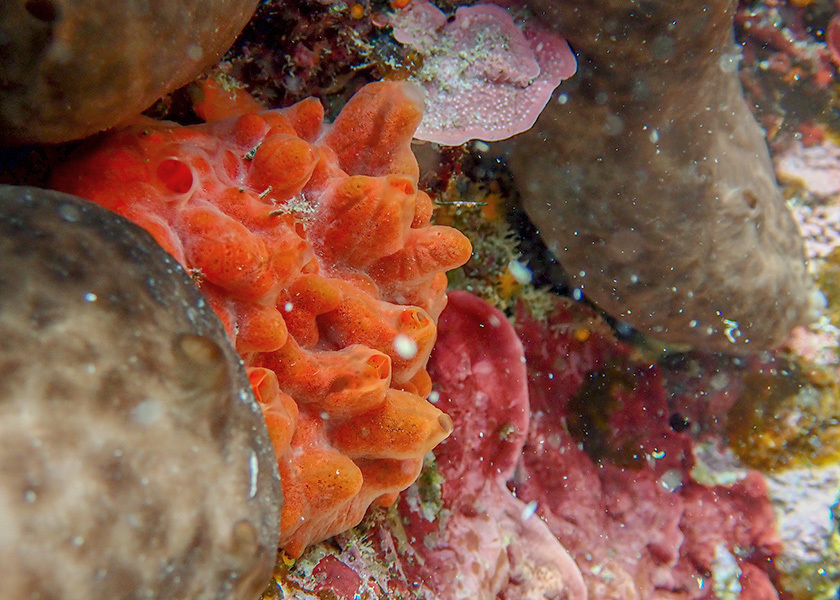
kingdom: Animalia
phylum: Porifera
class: Demospongiae
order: Poecilosclerida
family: Crambeidae
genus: Crambe
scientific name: Crambe crambe
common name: Orange-red encrusting sponge
